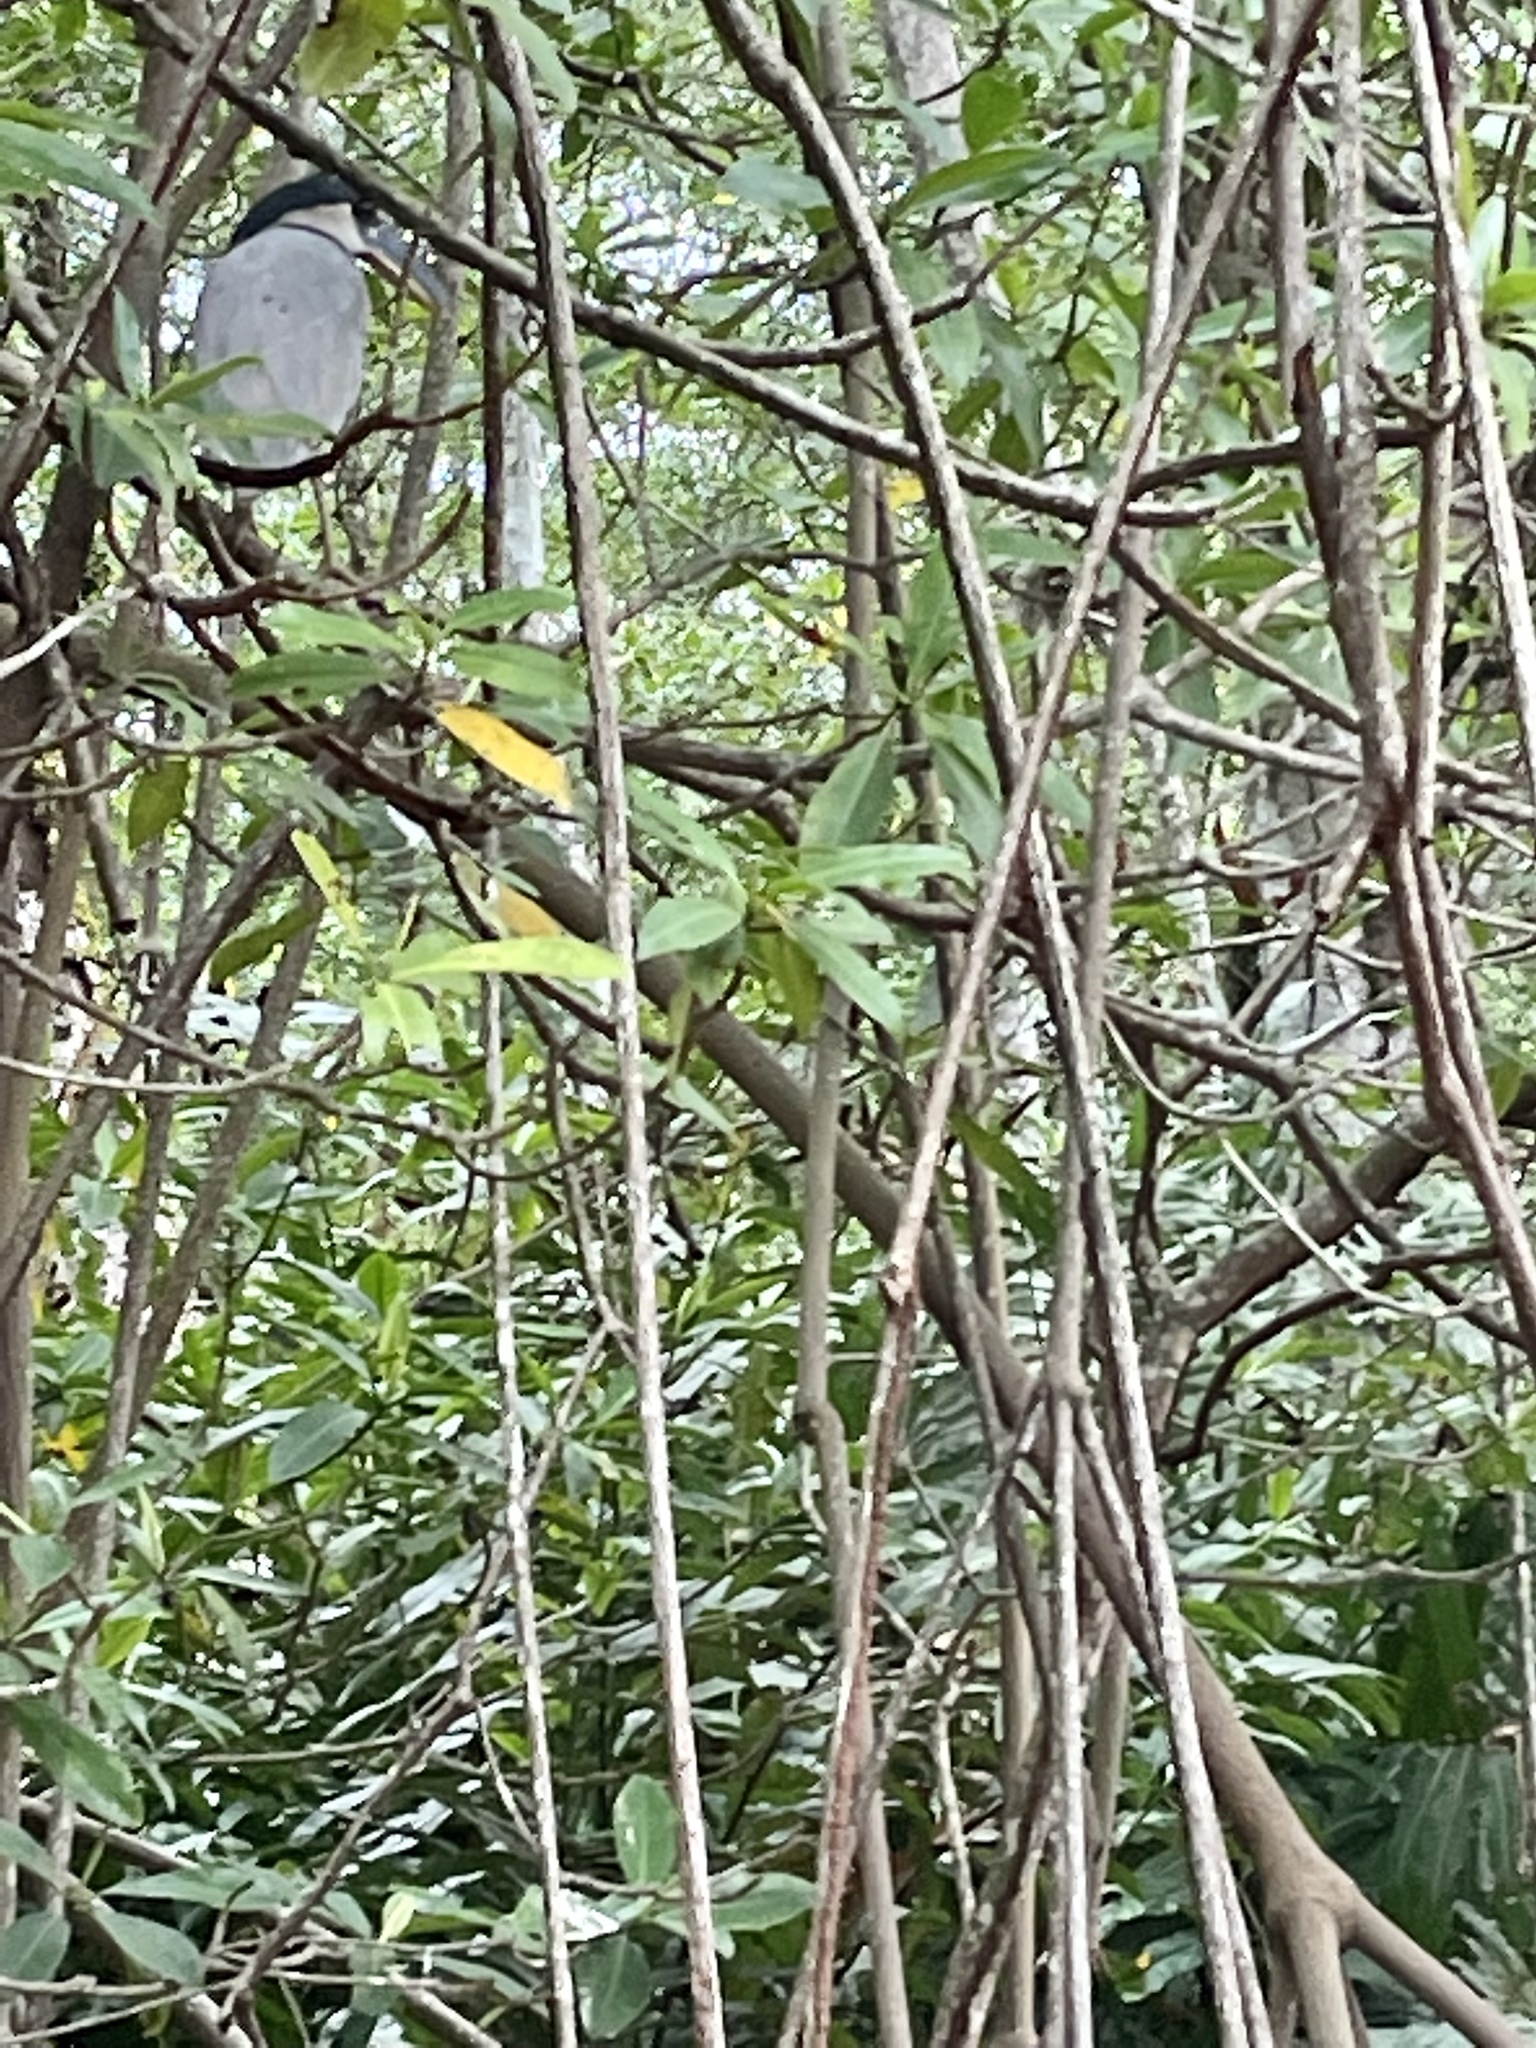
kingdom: Plantae
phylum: Tracheophyta
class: Magnoliopsida
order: Malpighiales
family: Rhizophoraceae
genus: Rhizophora
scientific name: Rhizophora mangle
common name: Red mangrove
